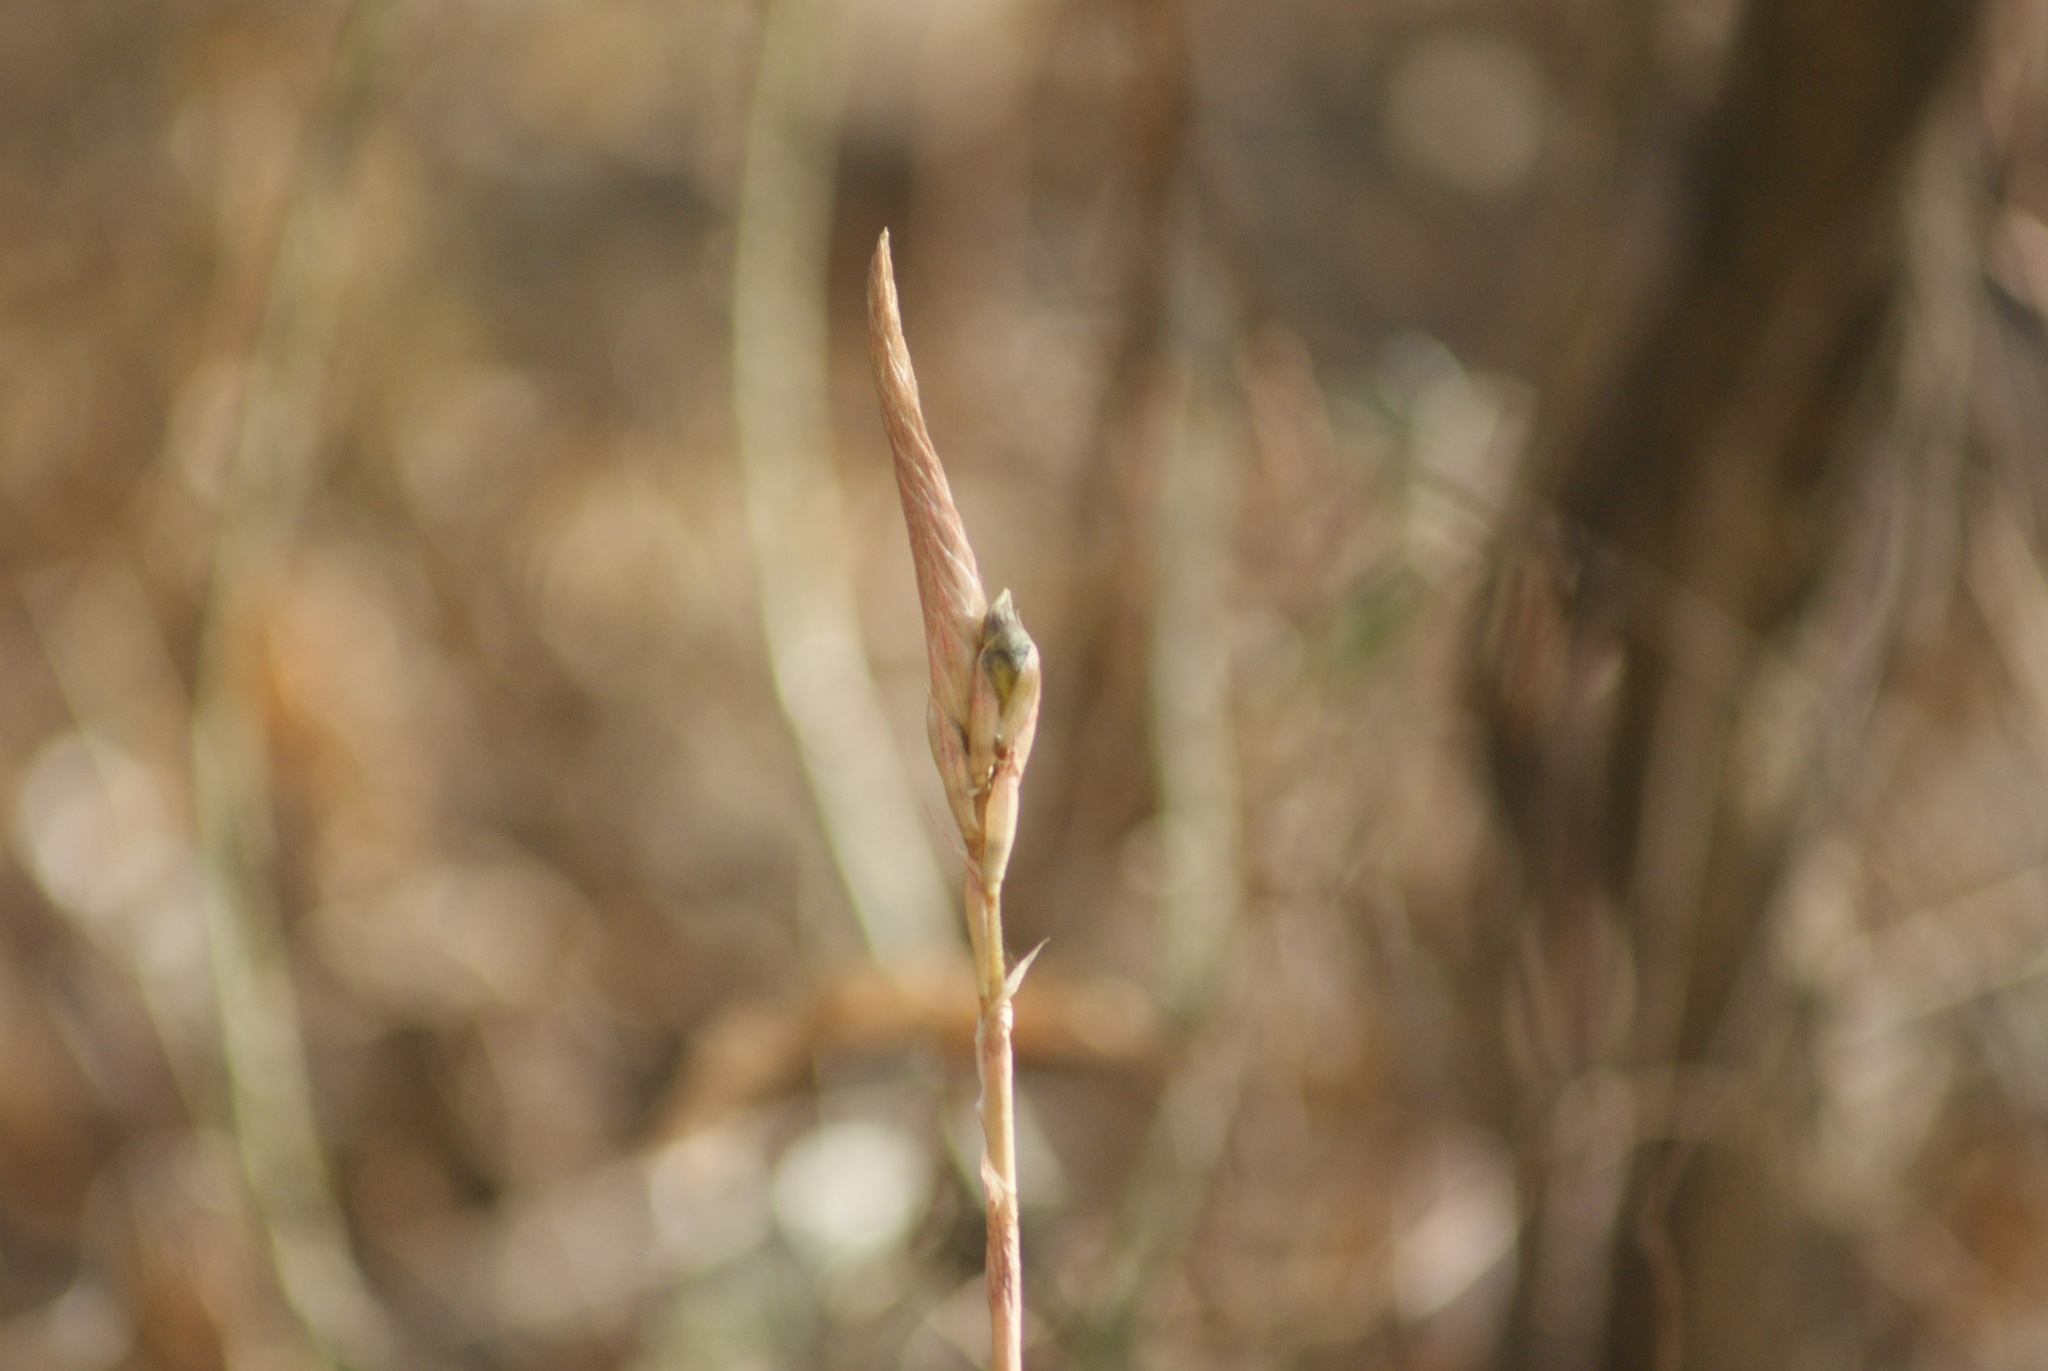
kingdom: Plantae
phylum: Tracheophyta
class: Liliopsida
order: Asparagales
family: Orchidaceae
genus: Aulosepalum
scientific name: Aulosepalum pyramidale
